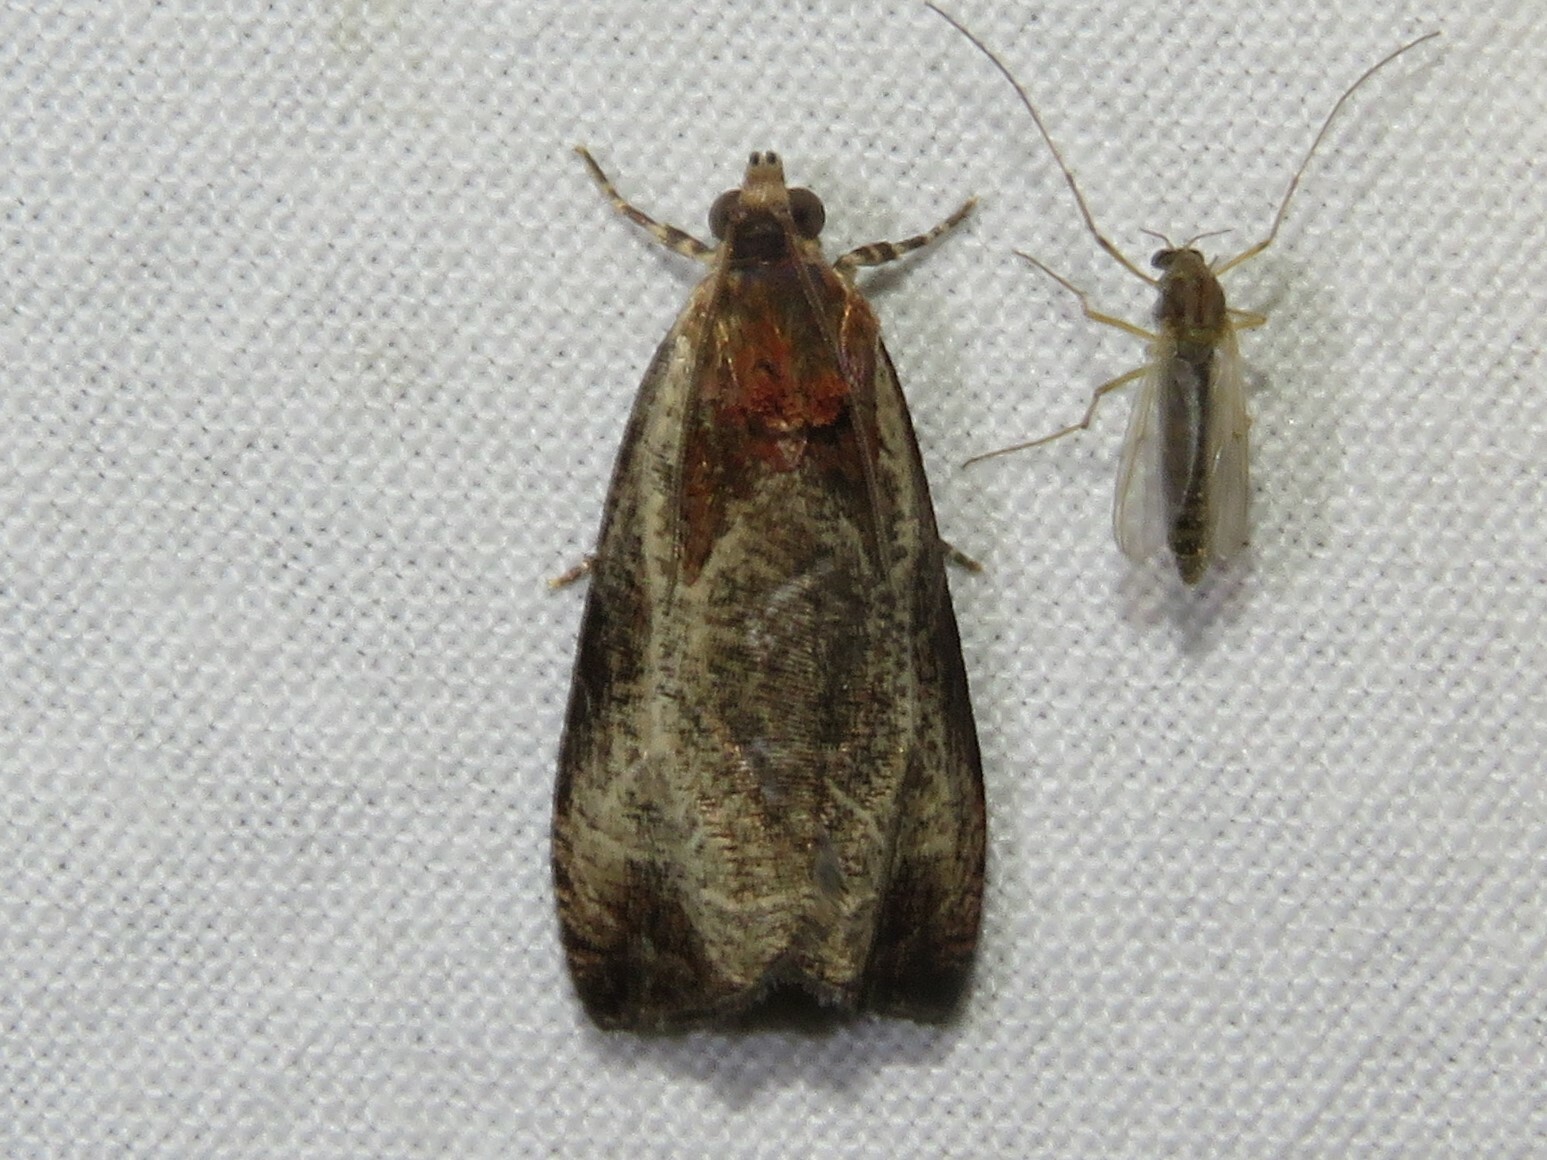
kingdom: Animalia
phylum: Arthropoda
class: Insecta
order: Lepidoptera
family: Tortricidae
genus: Olethreutes
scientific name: Olethreutes inornatana
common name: Inornate olethreutes moth
